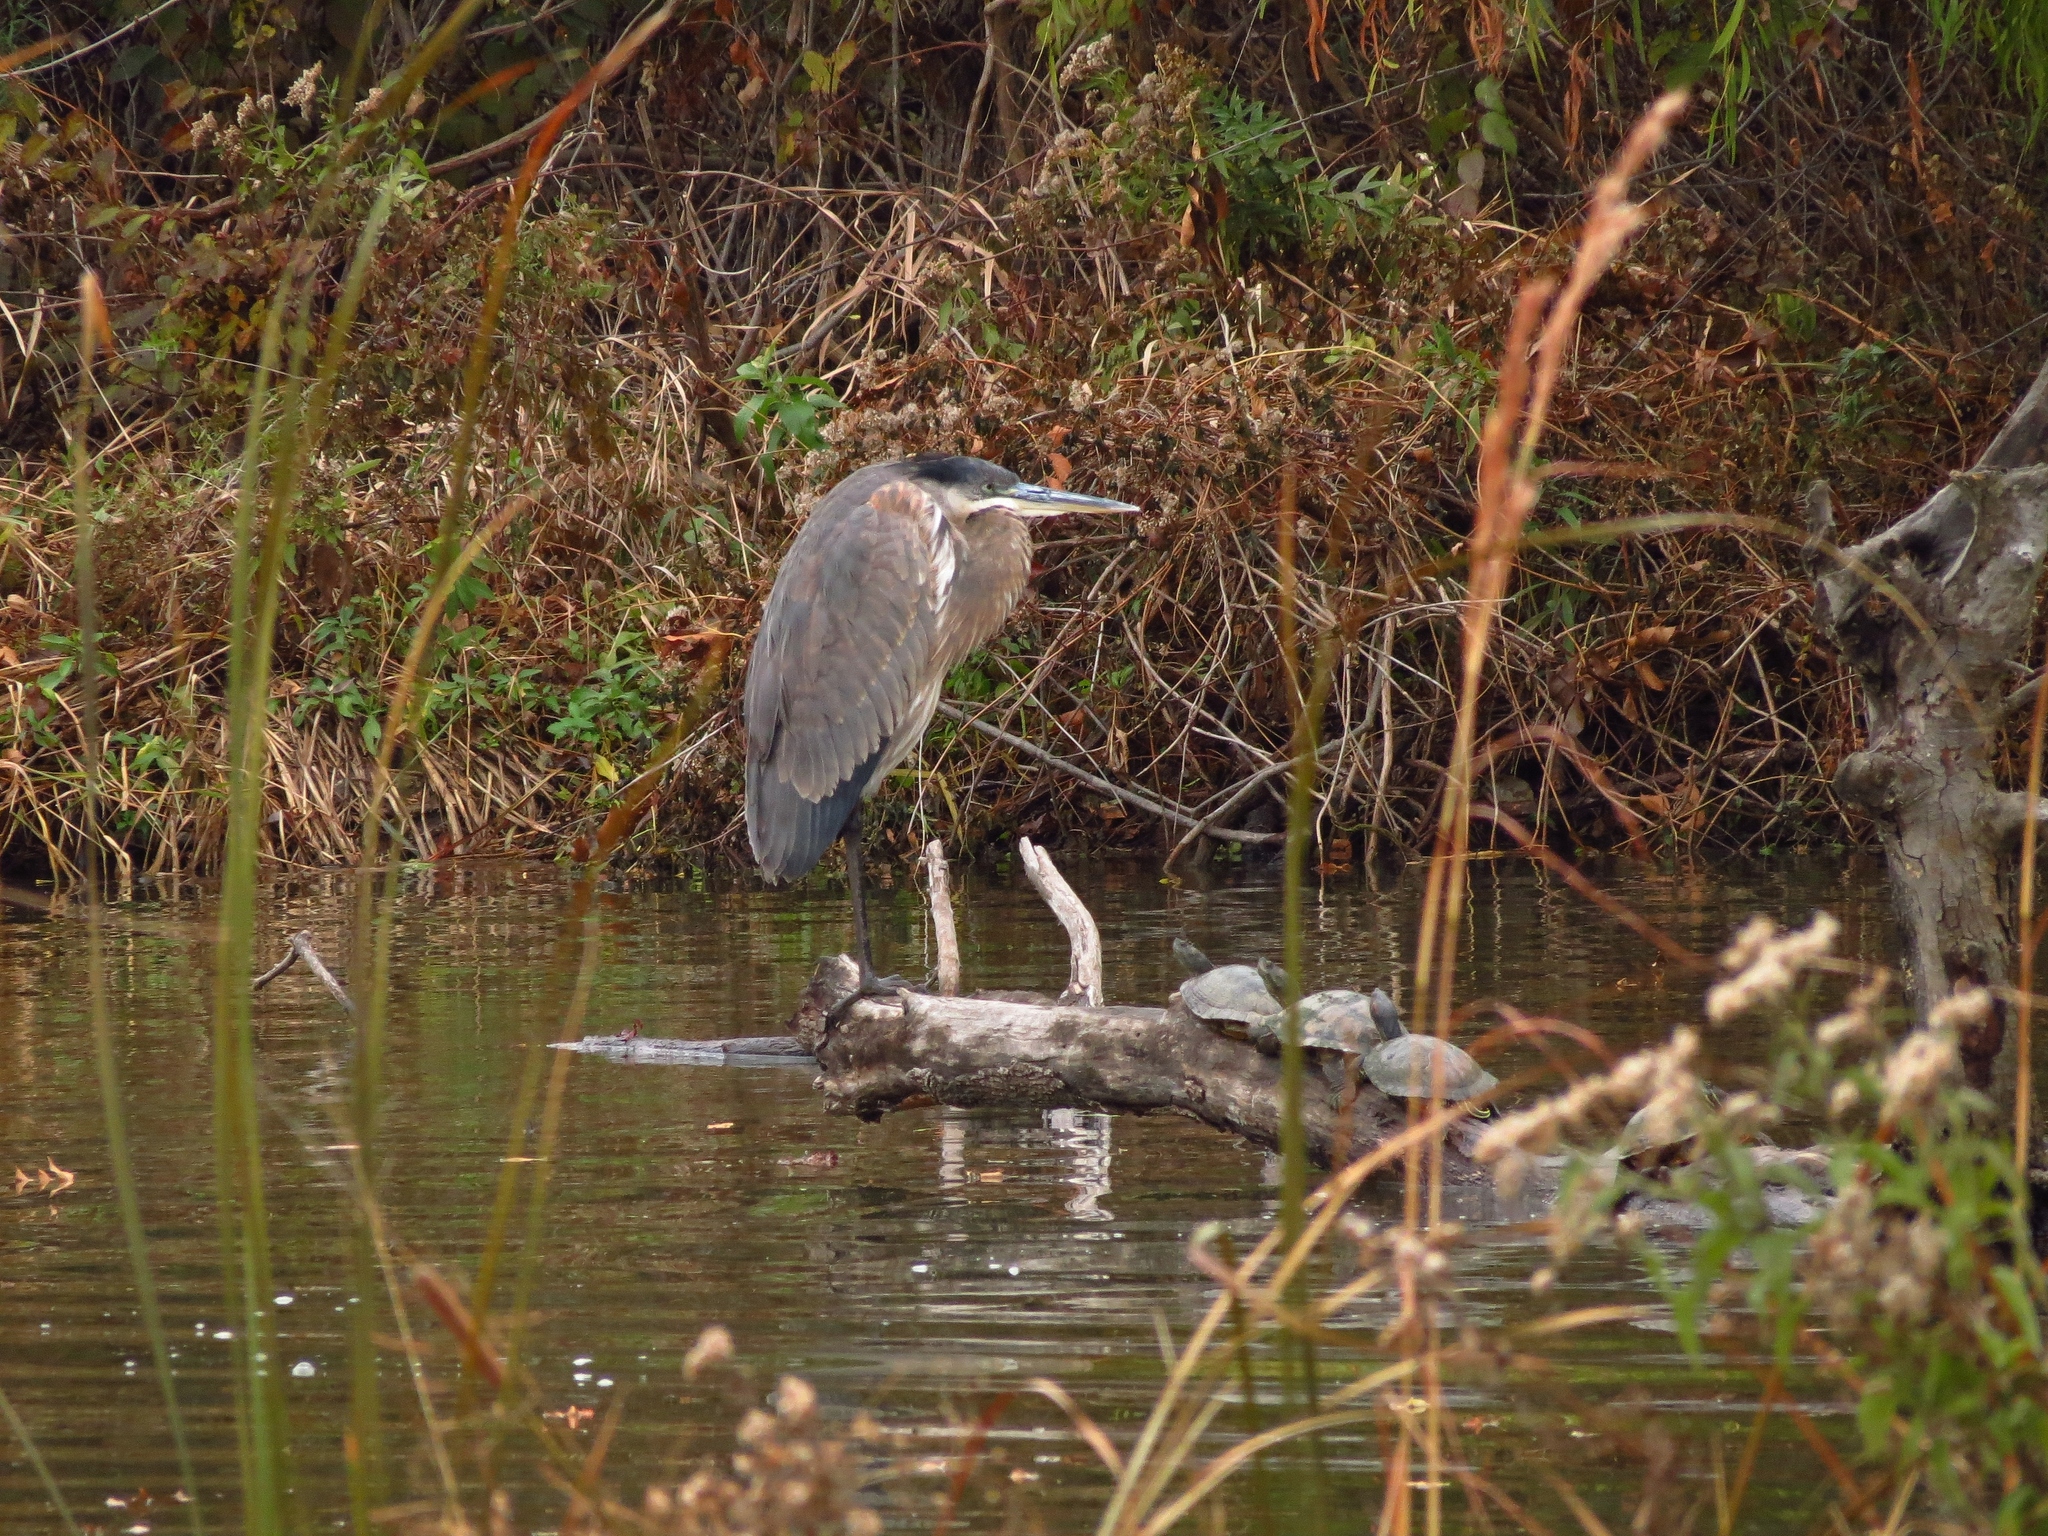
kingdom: Animalia
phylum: Chordata
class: Aves
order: Pelecaniformes
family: Ardeidae
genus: Ardea
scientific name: Ardea herodias
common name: Great blue heron
